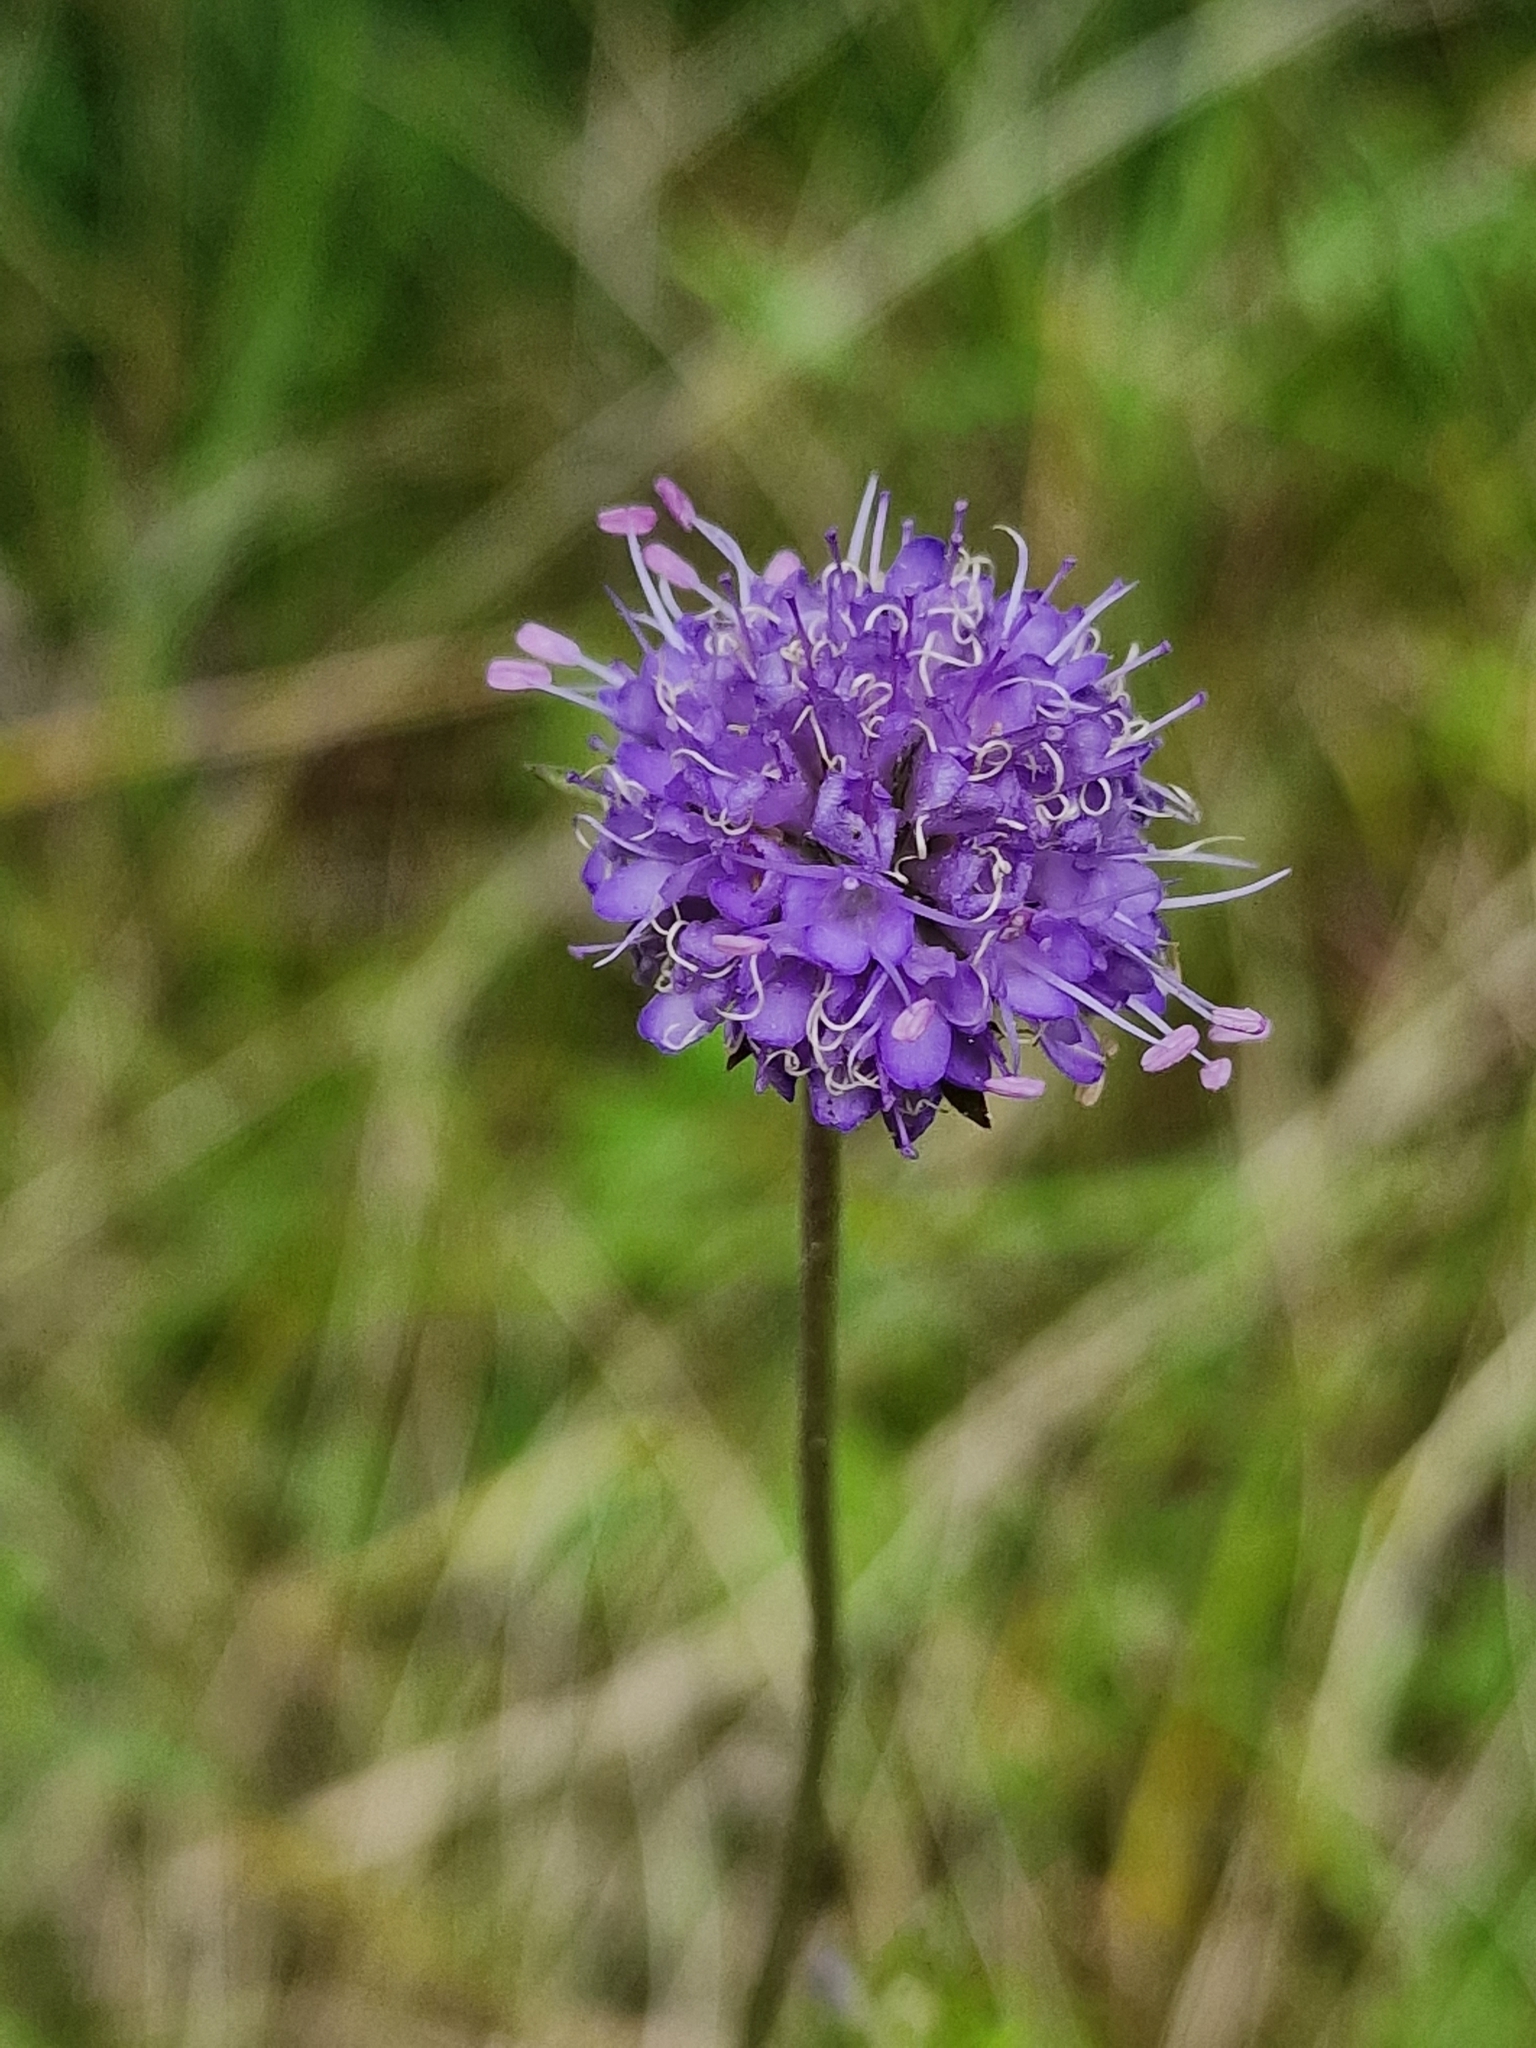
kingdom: Plantae
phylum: Tracheophyta
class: Magnoliopsida
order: Dipsacales
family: Caprifoliaceae
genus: Succisa
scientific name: Succisa pratensis
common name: Devil's-bit
